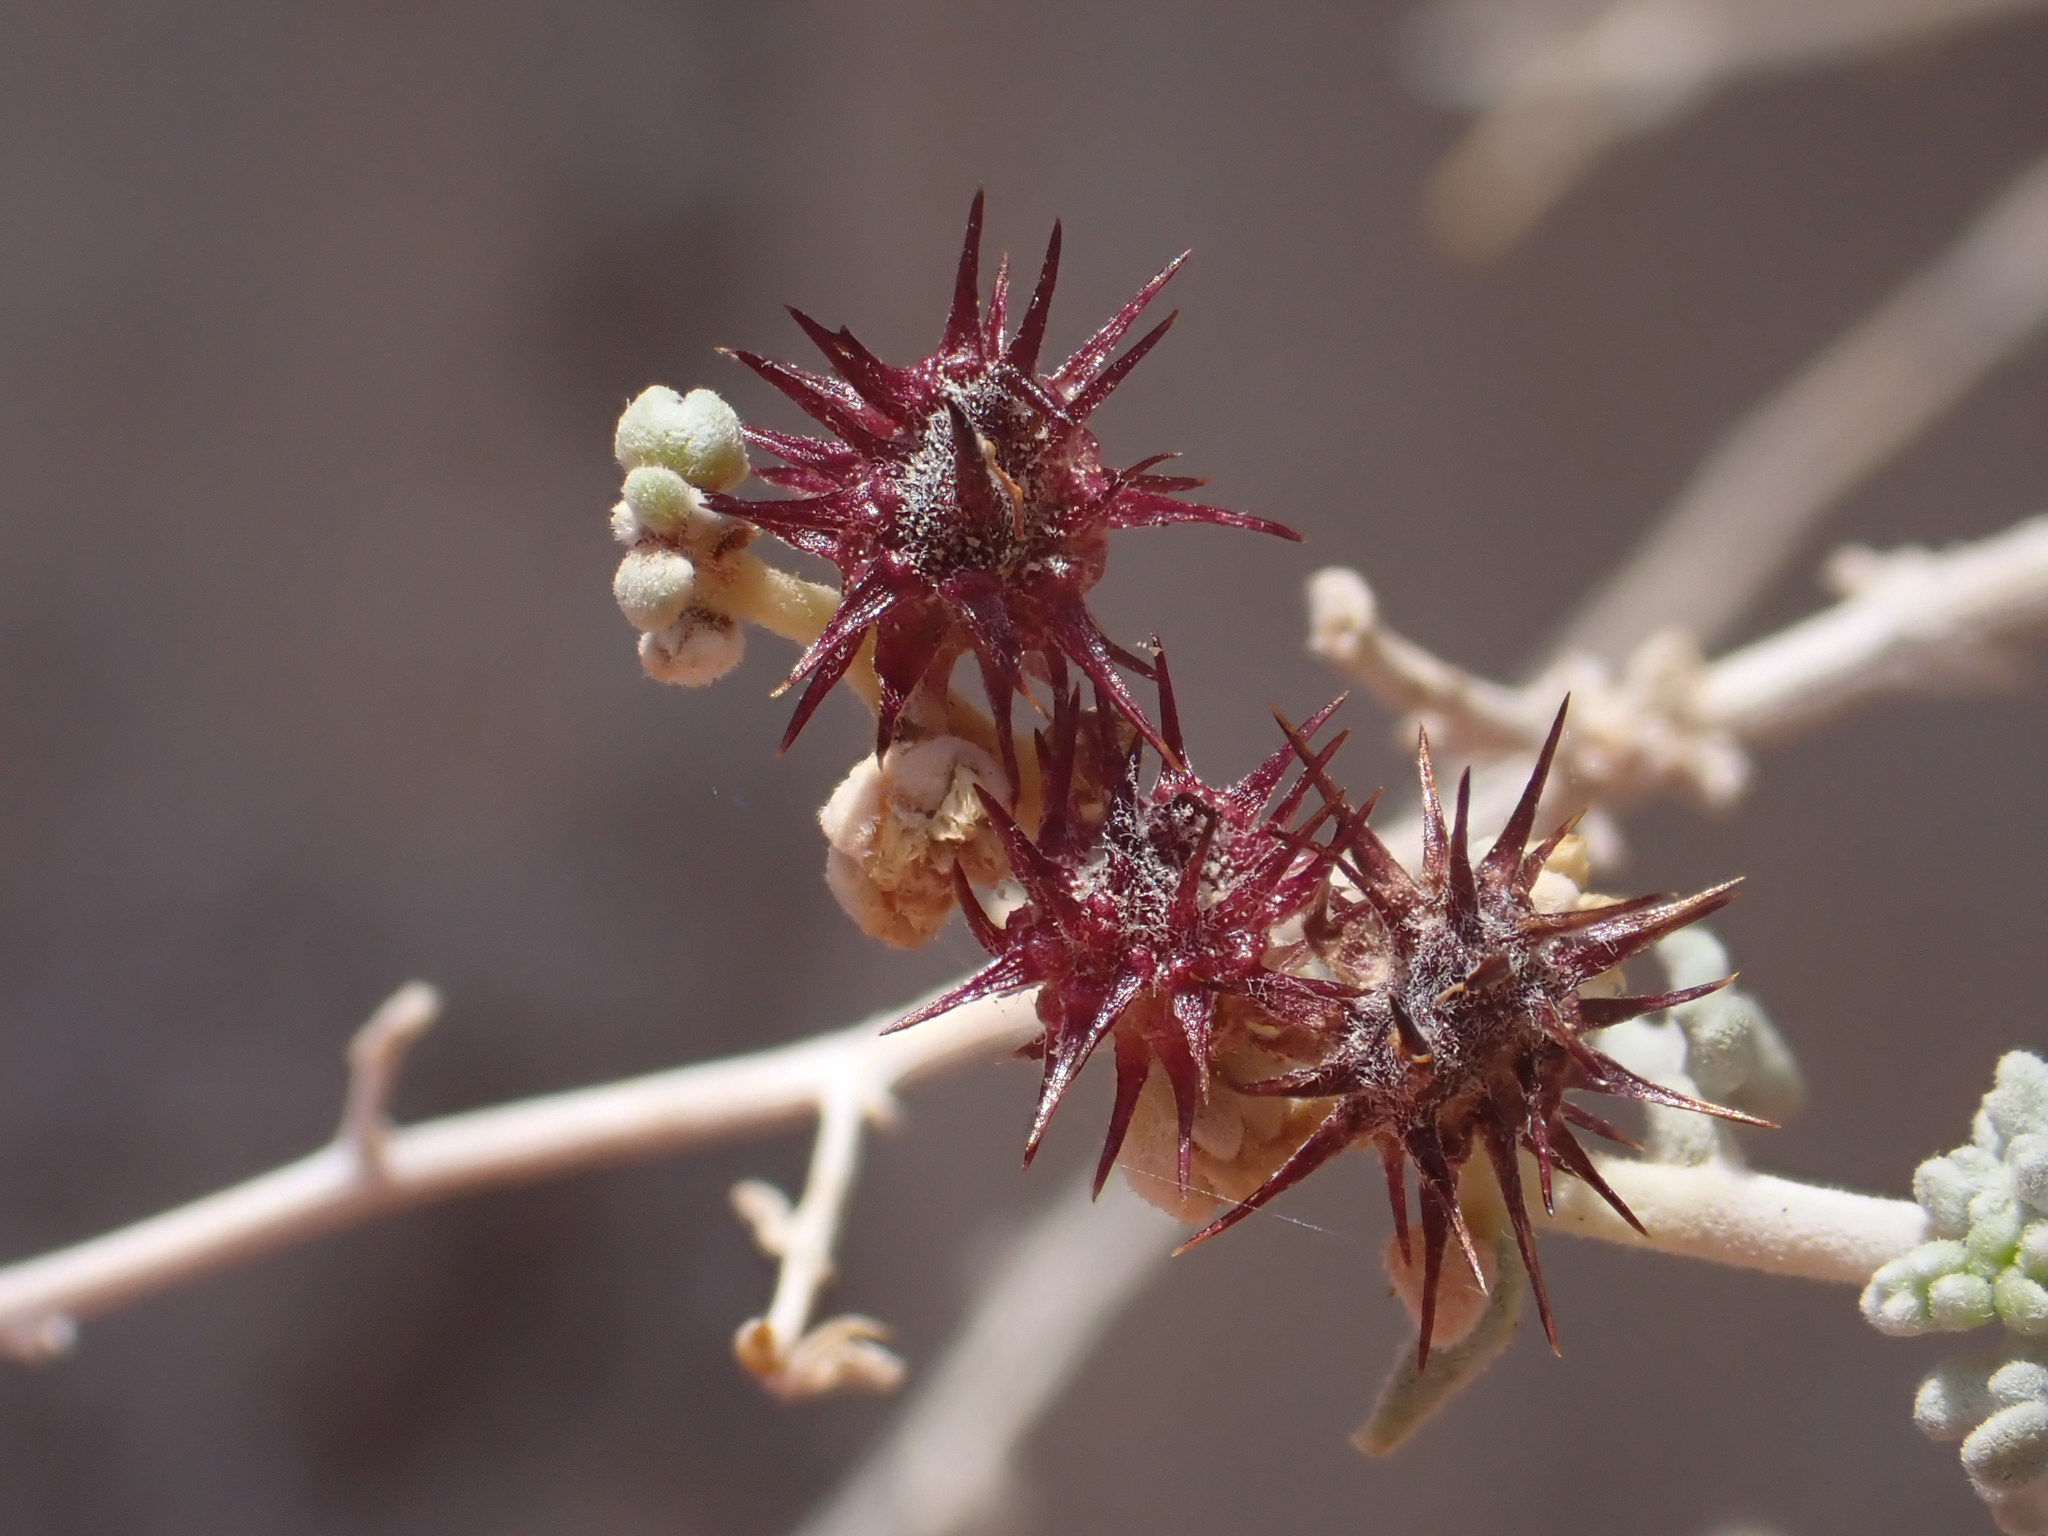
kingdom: Plantae
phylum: Tracheophyta
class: Magnoliopsida
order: Asterales
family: Asteraceae
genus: Ambrosia
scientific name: Ambrosia dumosa
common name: Bur-sage
